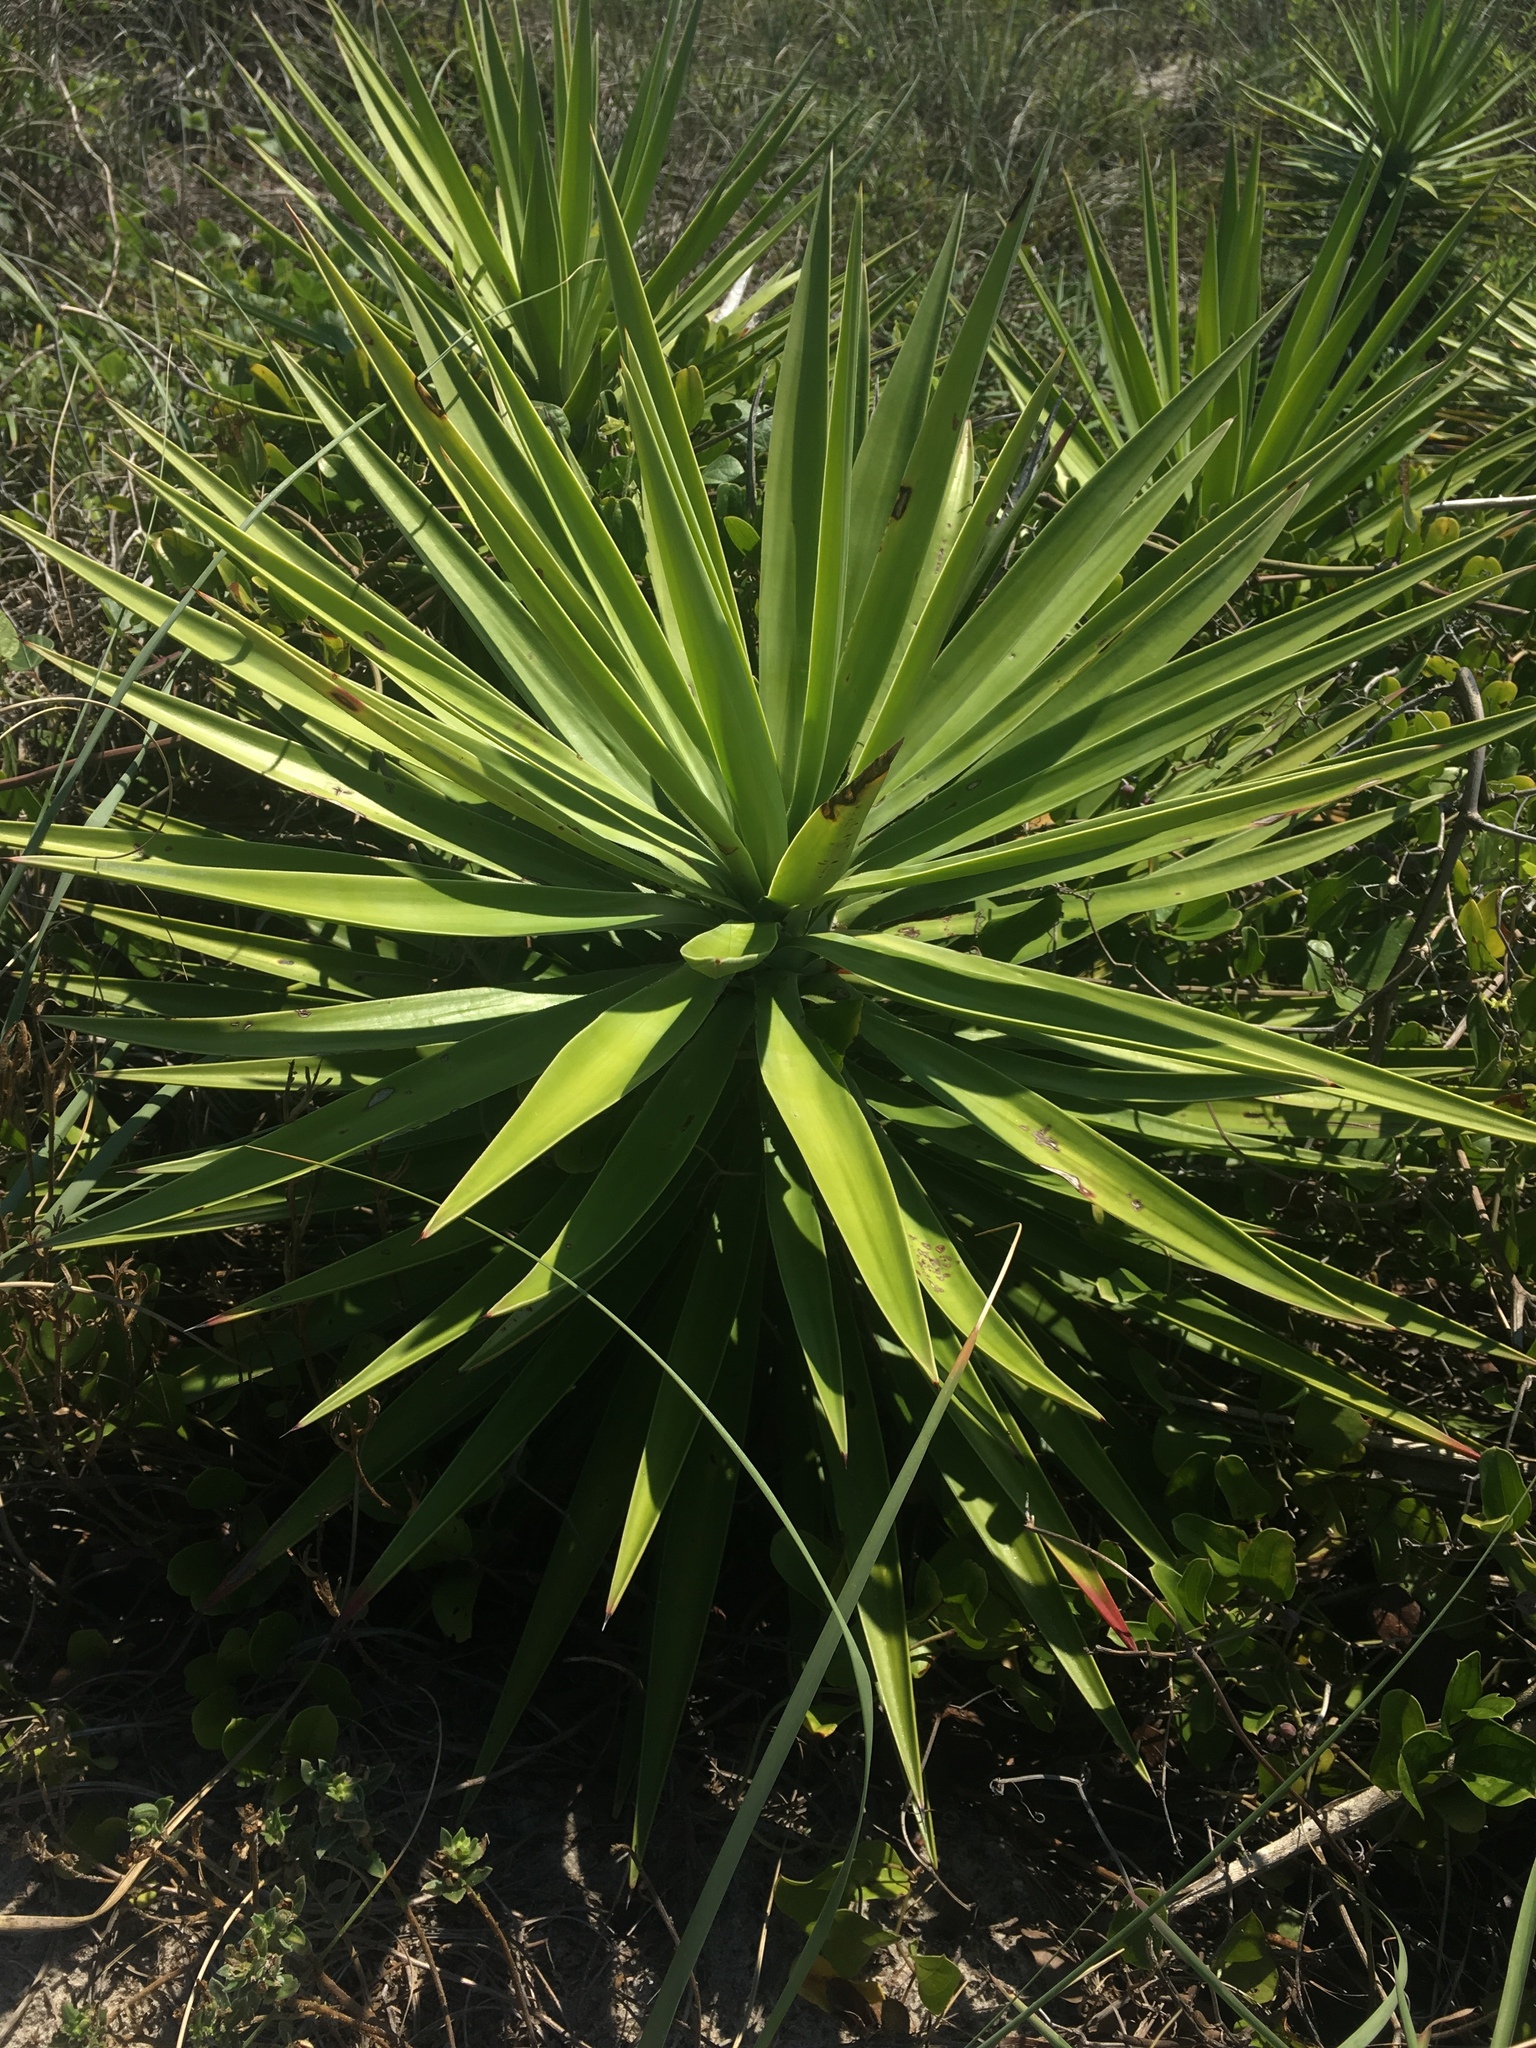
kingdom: Plantae
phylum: Tracheophyta
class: Liliopsida
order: Asparagales
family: Asparagaceae
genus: Yucca
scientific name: Yucca aloifolia
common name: Aloe yucca
